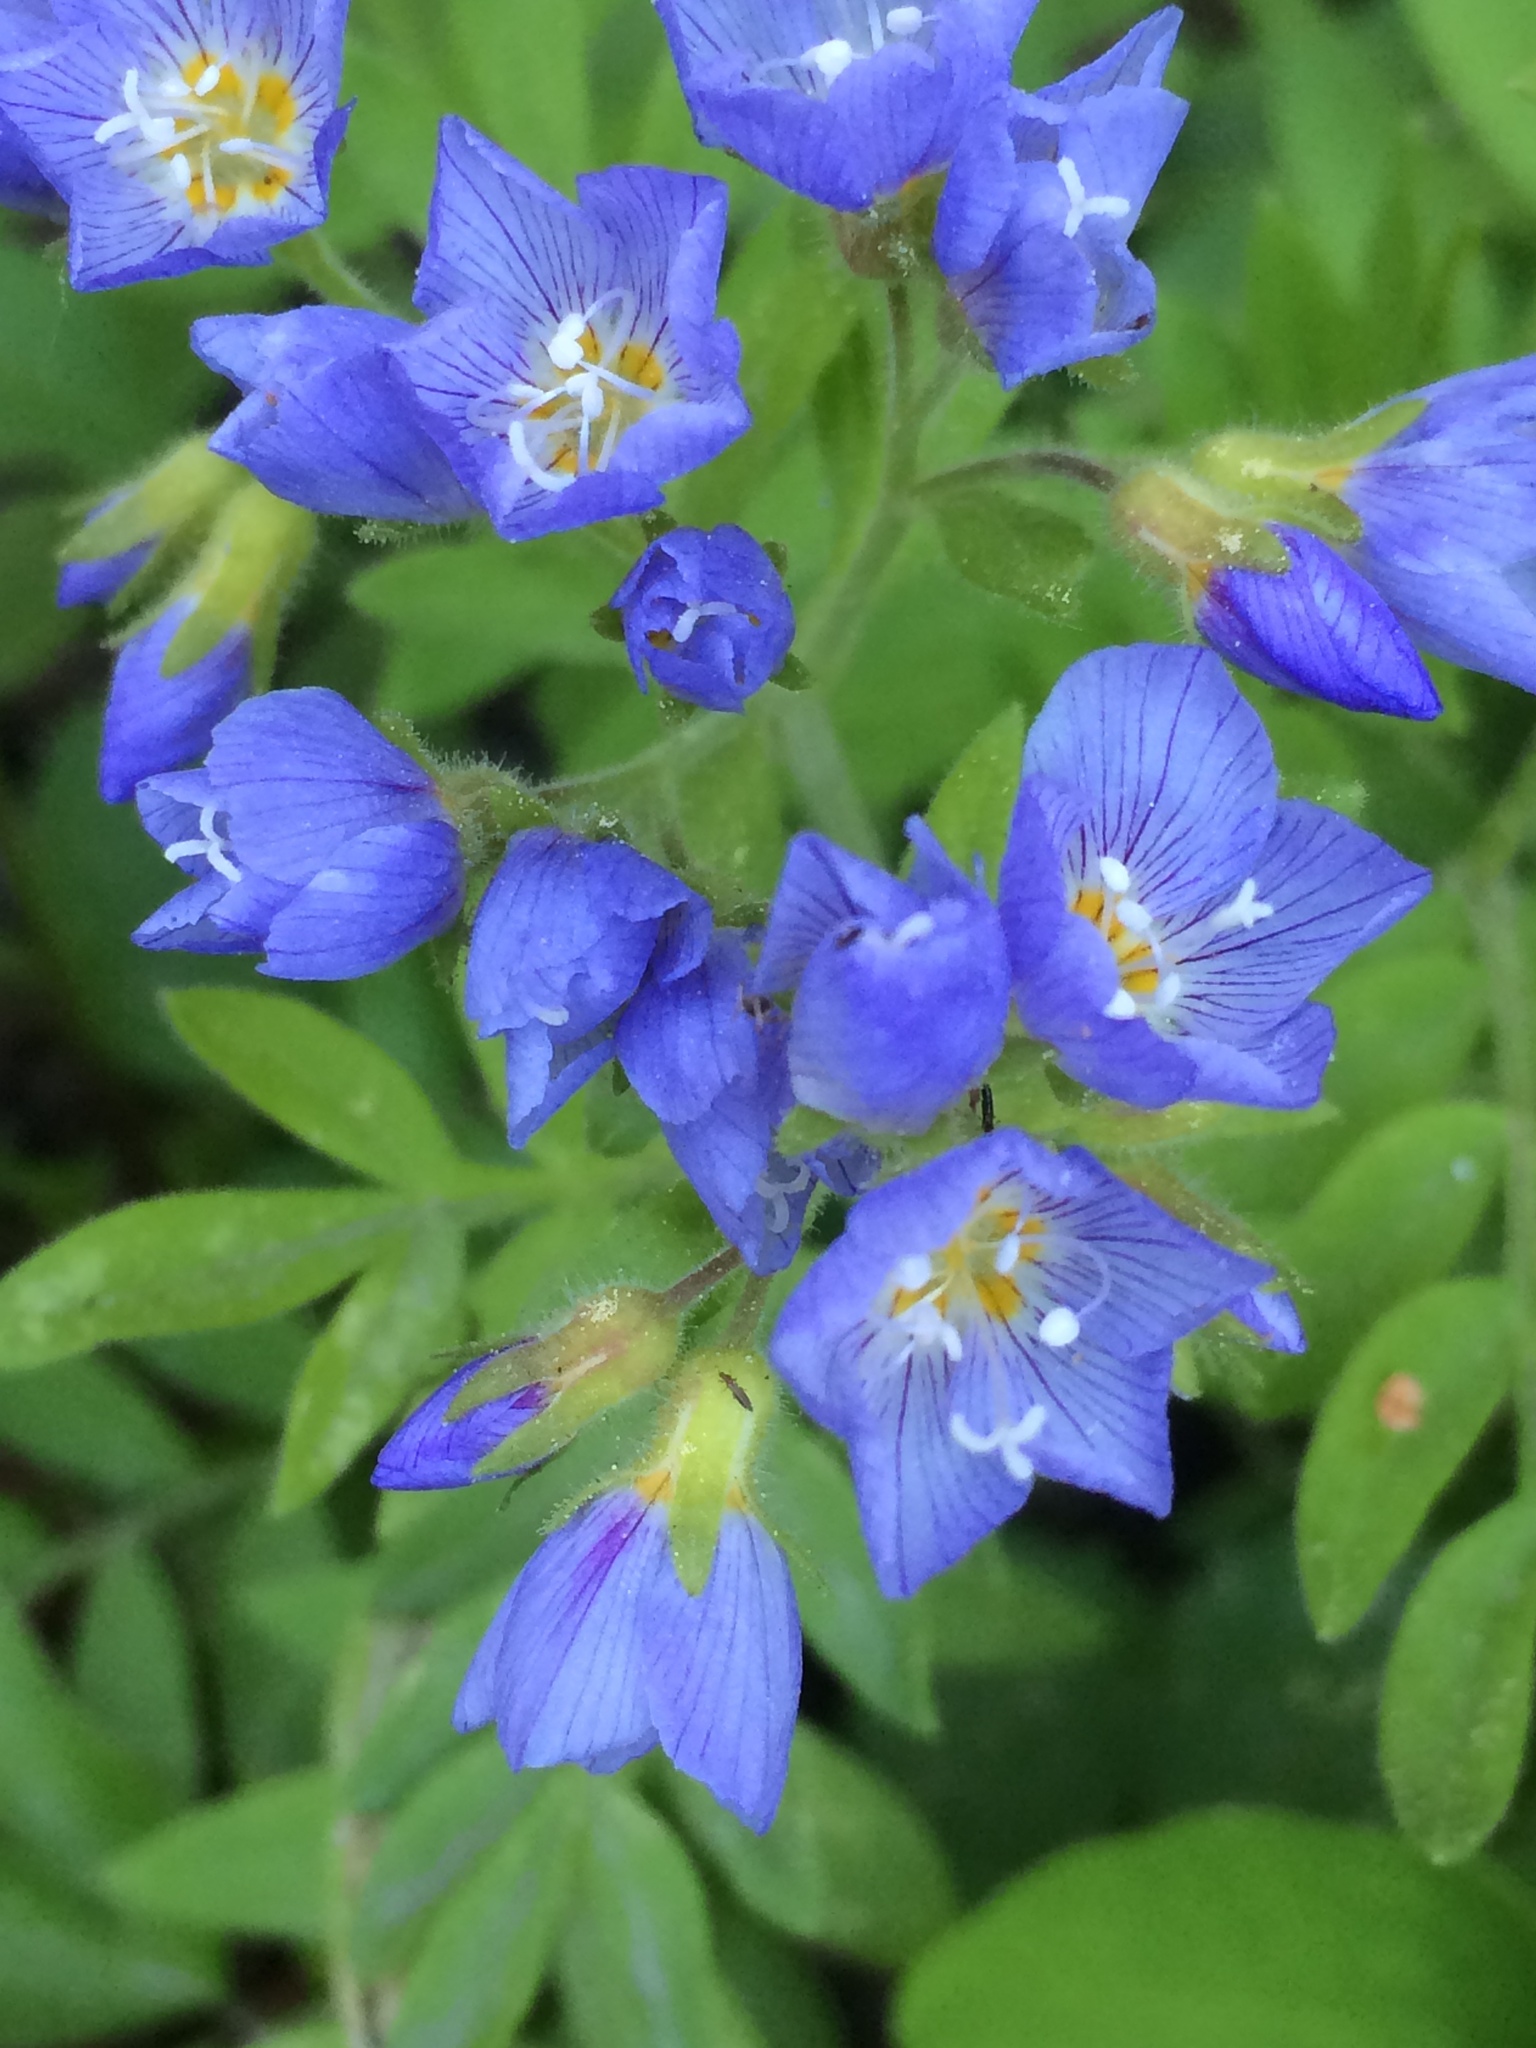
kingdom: Plantae
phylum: Tracheophyta
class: Magnoliopsida
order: Ericales
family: Polemoniaceae
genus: Polemonium
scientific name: Polemonium californicum
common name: California jacob's ladder
